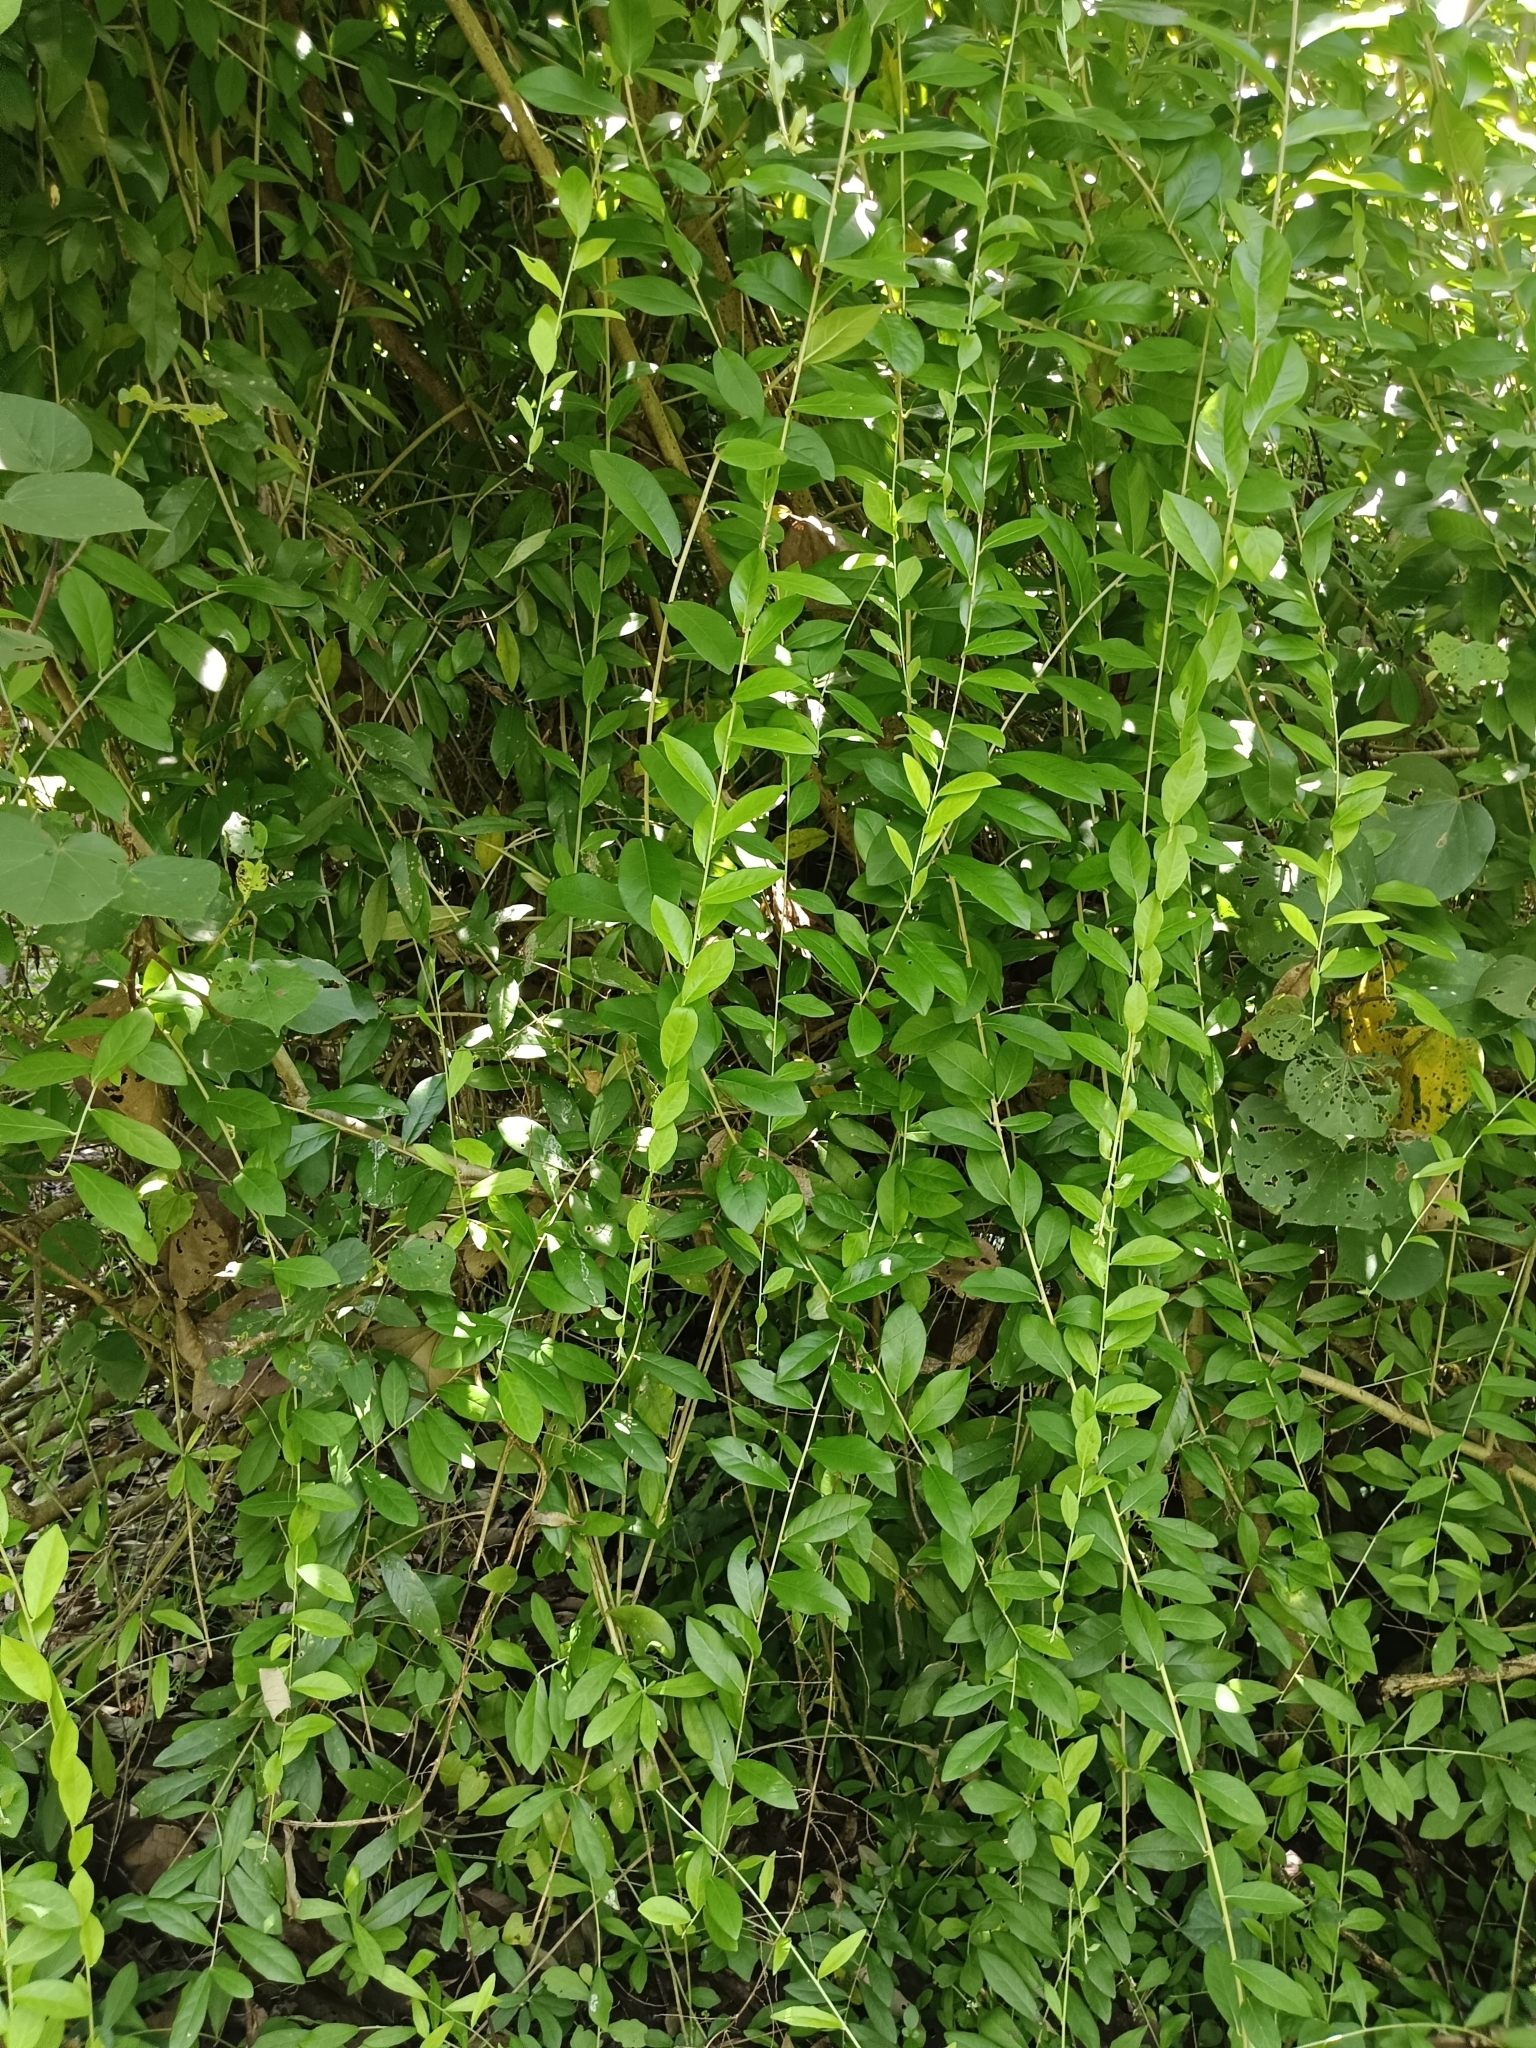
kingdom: Plantae
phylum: Tracheophyta
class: Magnoliopsida
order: Asterales
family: Asteraceae
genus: Tarlmounia
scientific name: Tarlmounia elliptica
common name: Kheua sa lot
